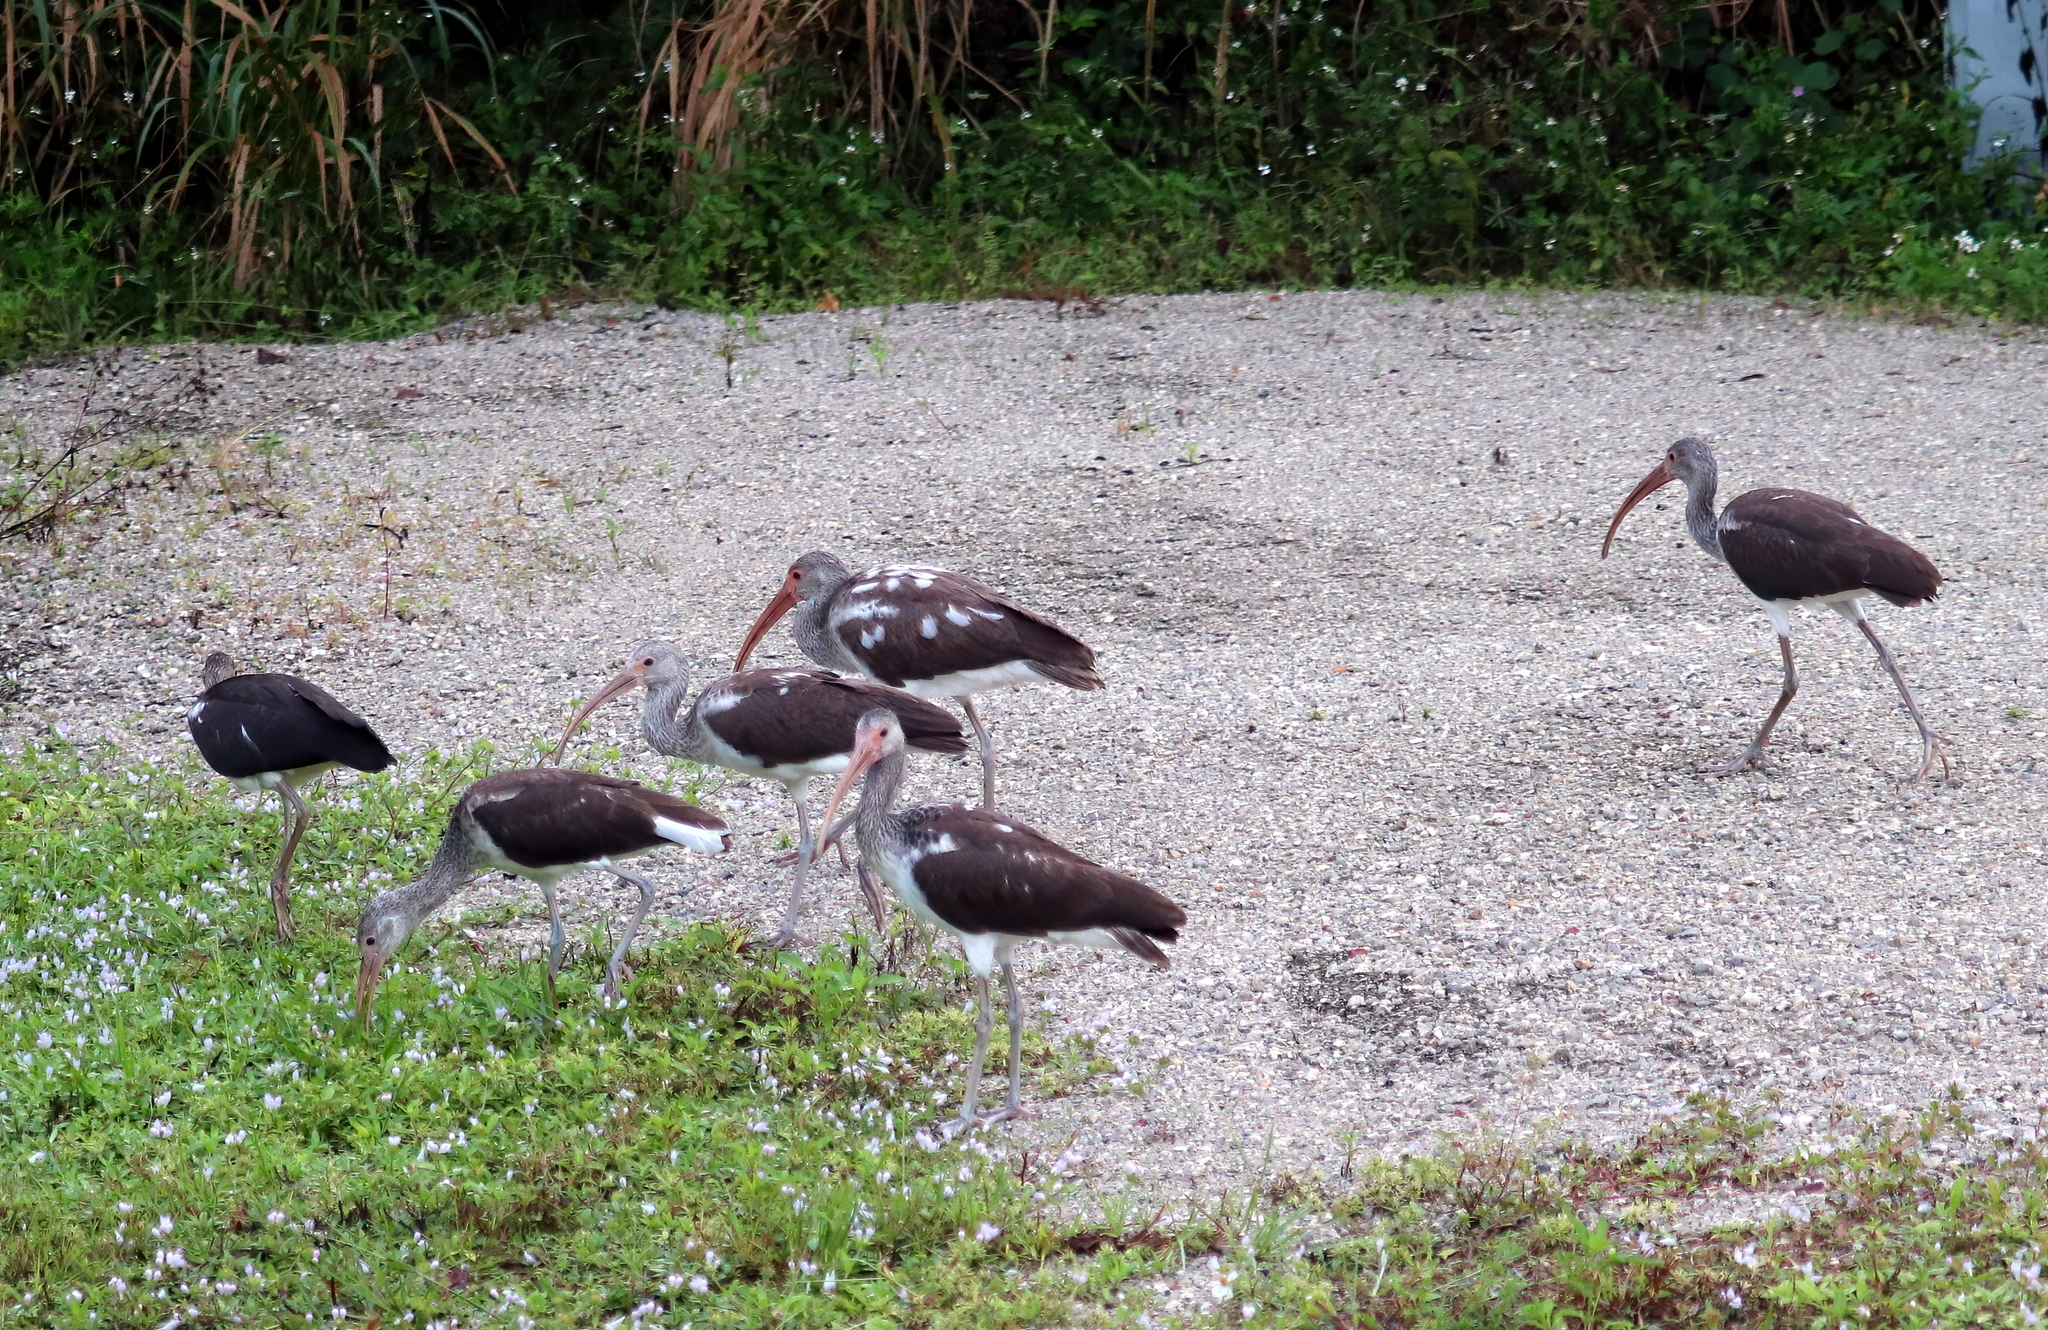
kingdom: Animalia
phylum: Chordata
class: Aves
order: Pelecaniformes
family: Threskiornithidae
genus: Eudocimus
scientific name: Eudocimus albus
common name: White ibis
